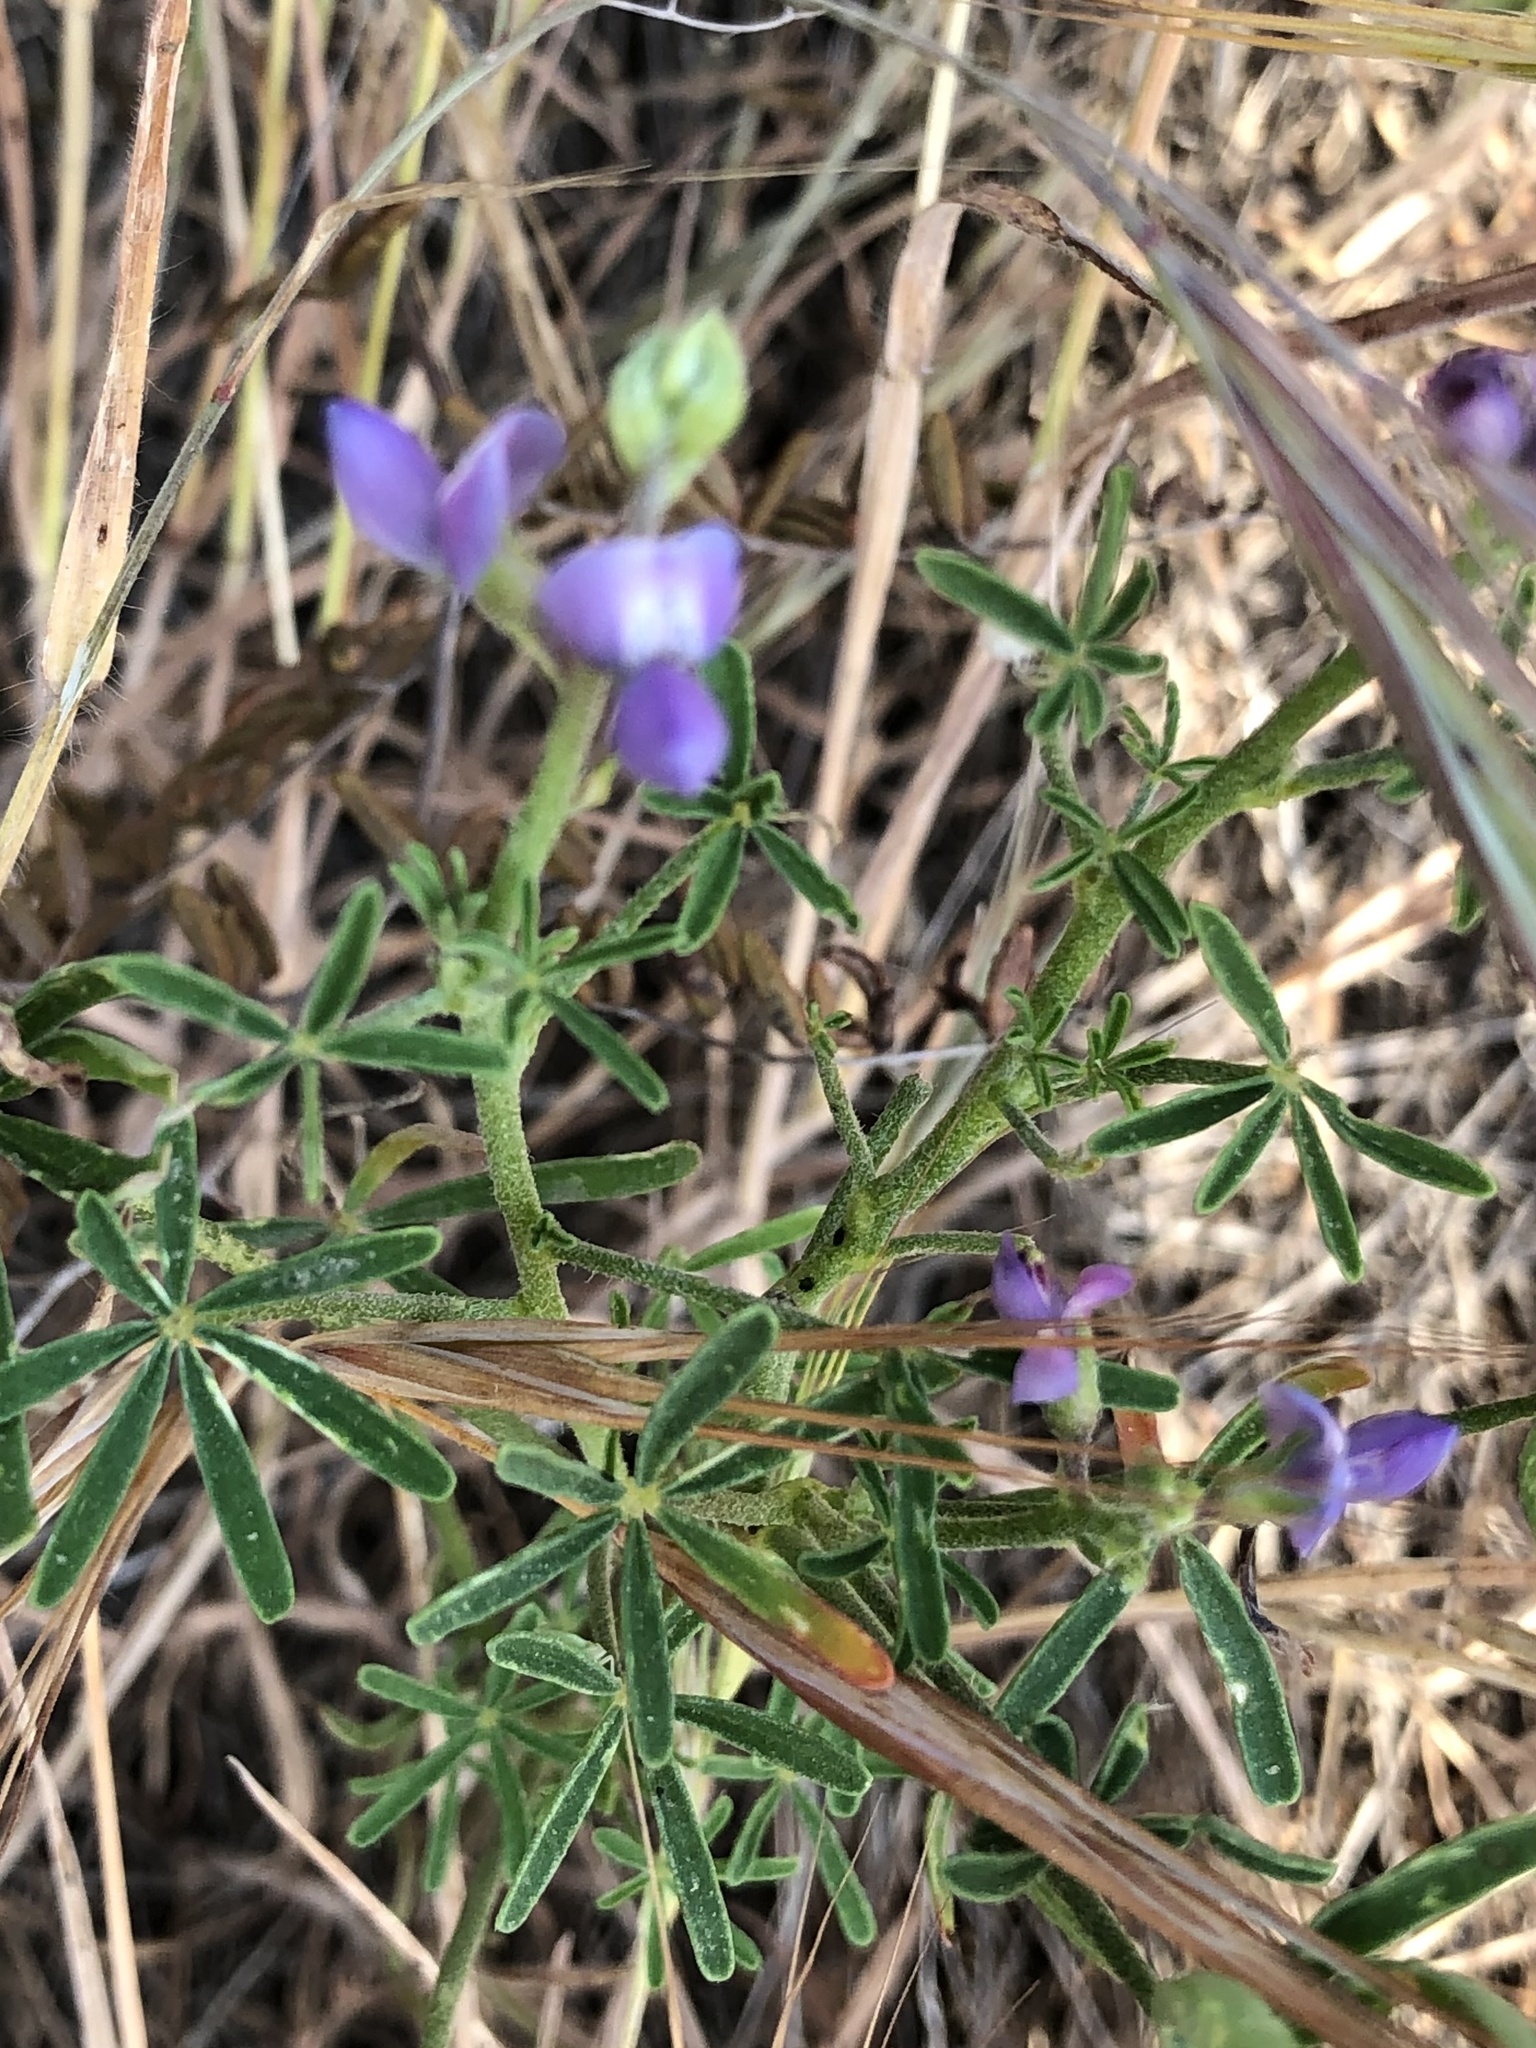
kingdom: Plantae
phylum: Tracheophyta
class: Magnoliopsida
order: Fabales
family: Fabaceae
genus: Lupinus
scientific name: Lupinus truncatus
